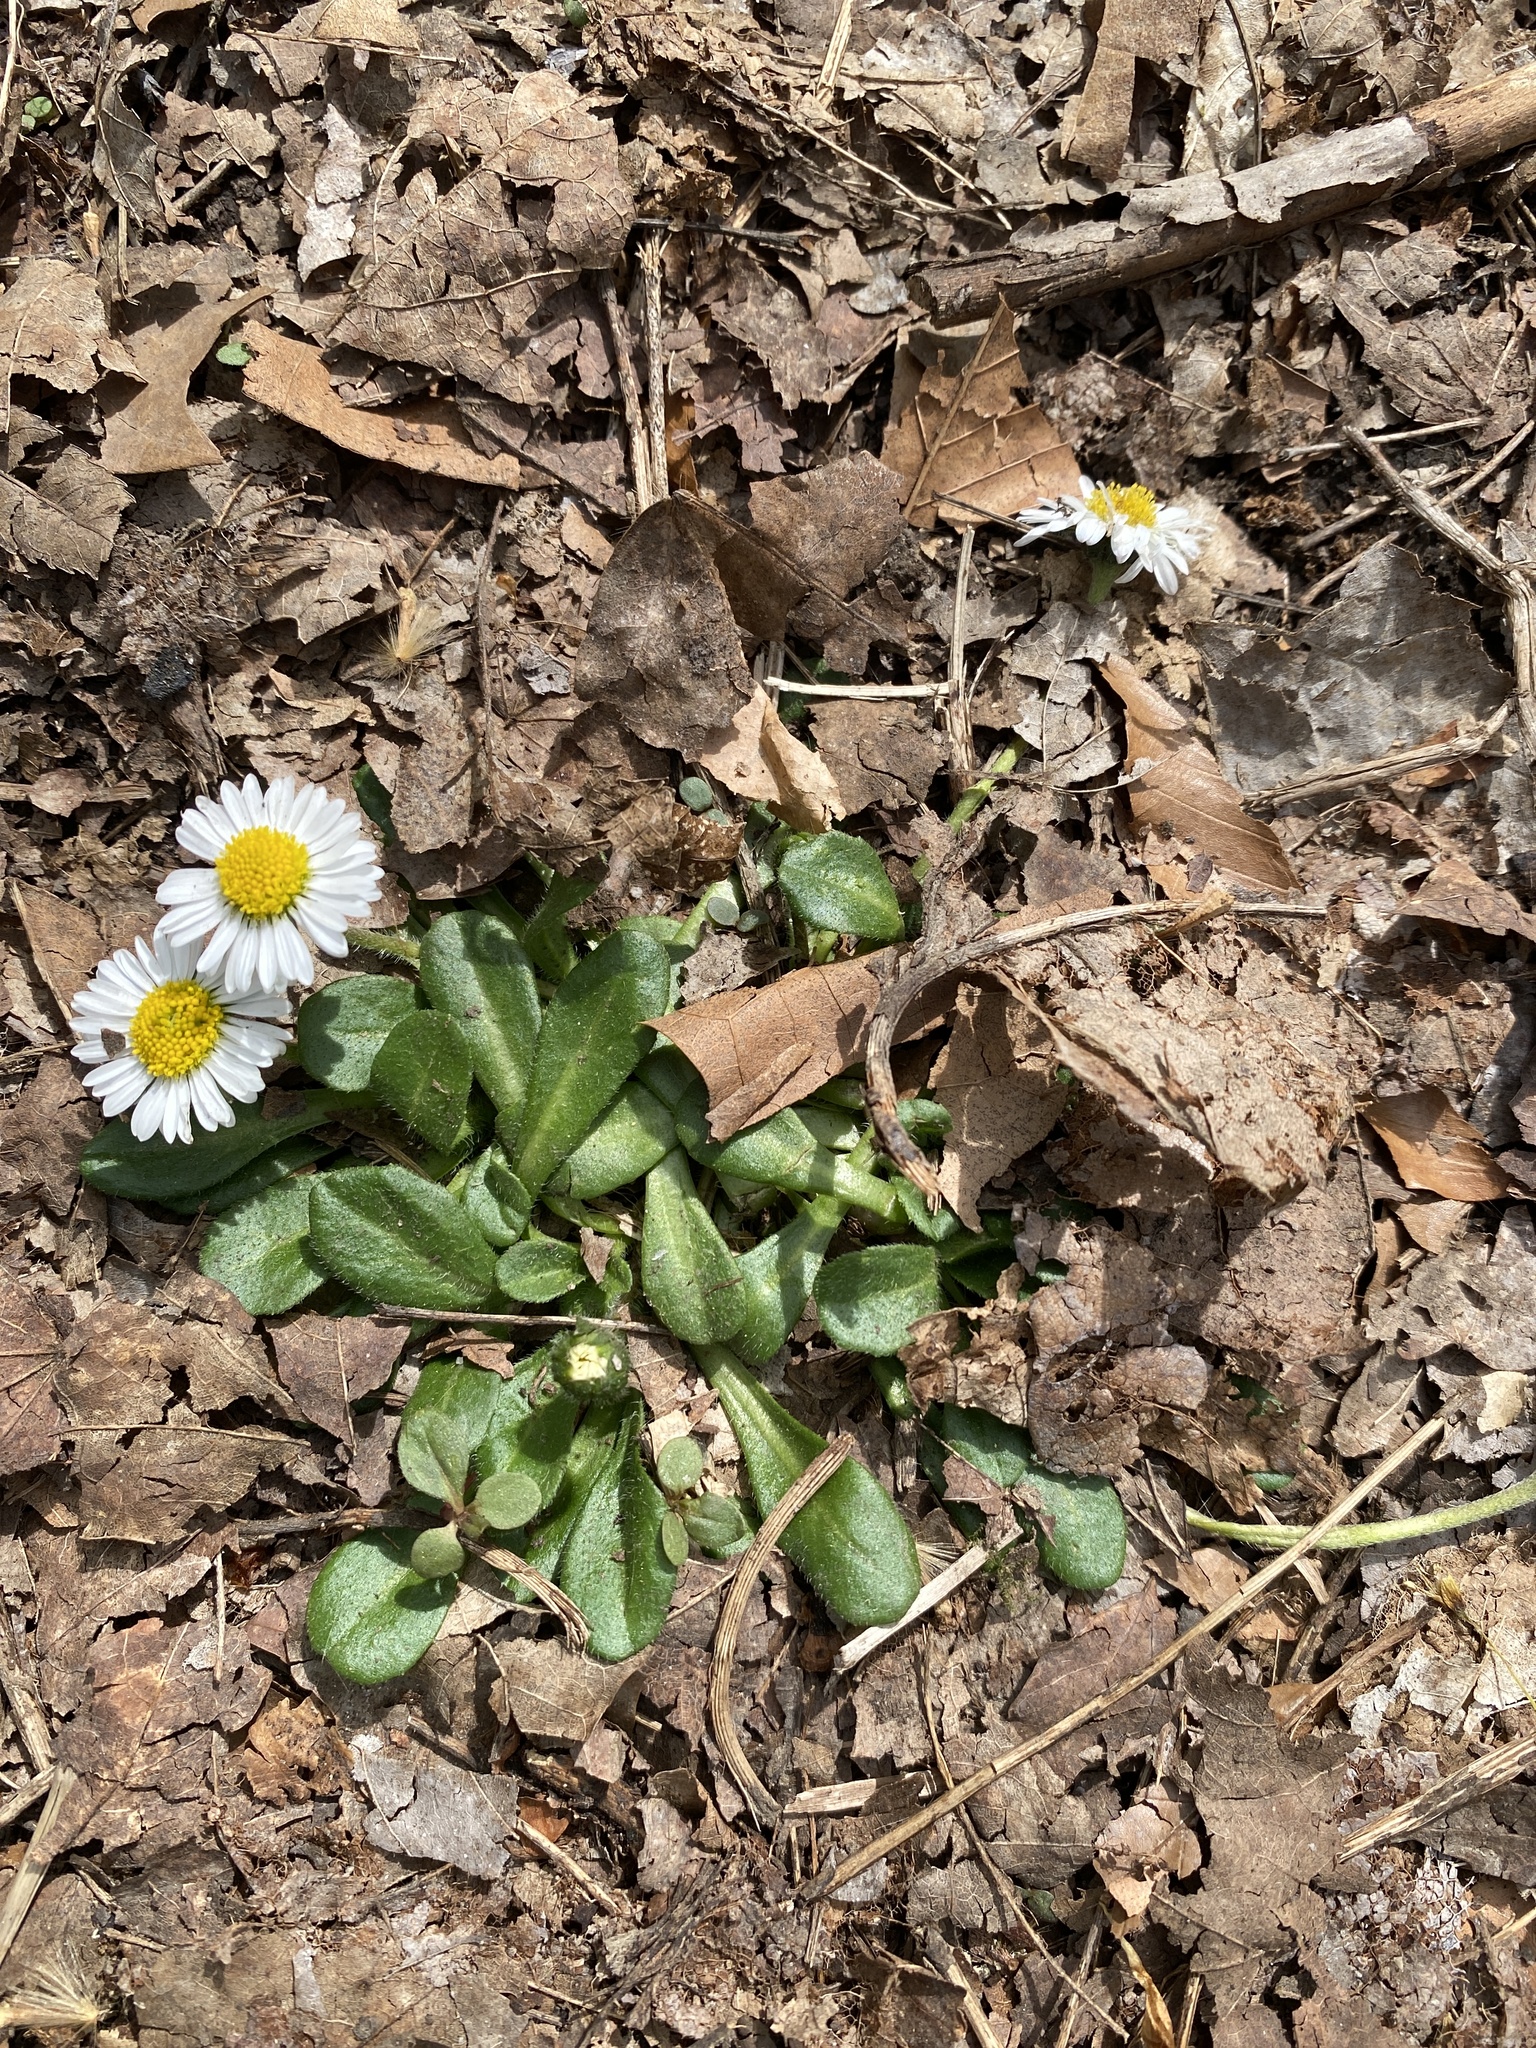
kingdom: Plantae
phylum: Tracheophyta
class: Magnoliopsida
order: Asterales
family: Asteraceae
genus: Bellis
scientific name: Bellis perennis
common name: Lawndaisy
